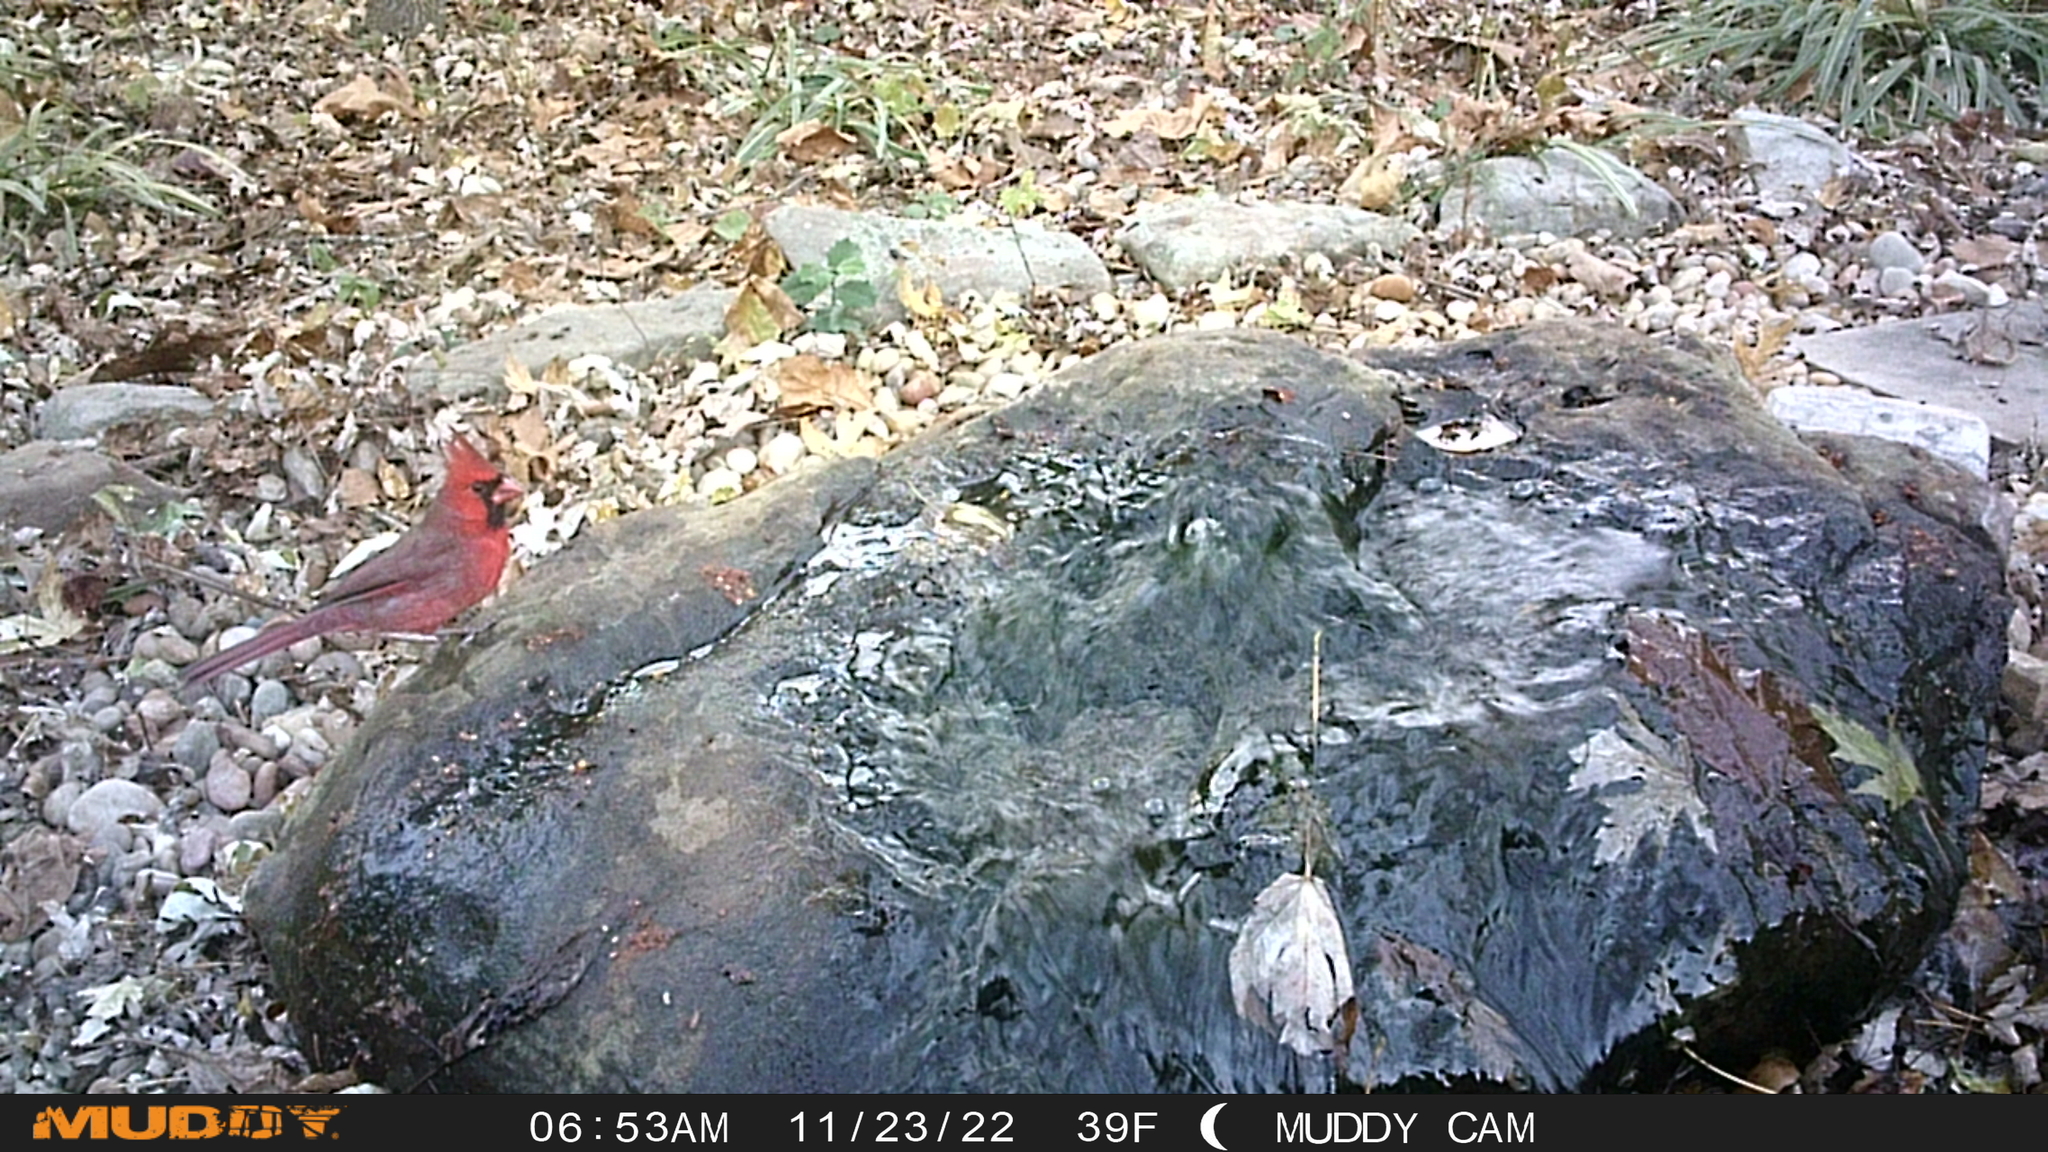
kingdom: Animalia
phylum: Chordata
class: Aves
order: Passeriformes
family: Cardinalidae
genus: Cardinalis
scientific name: Cardinalis cardinalis
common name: Northern cardinal
